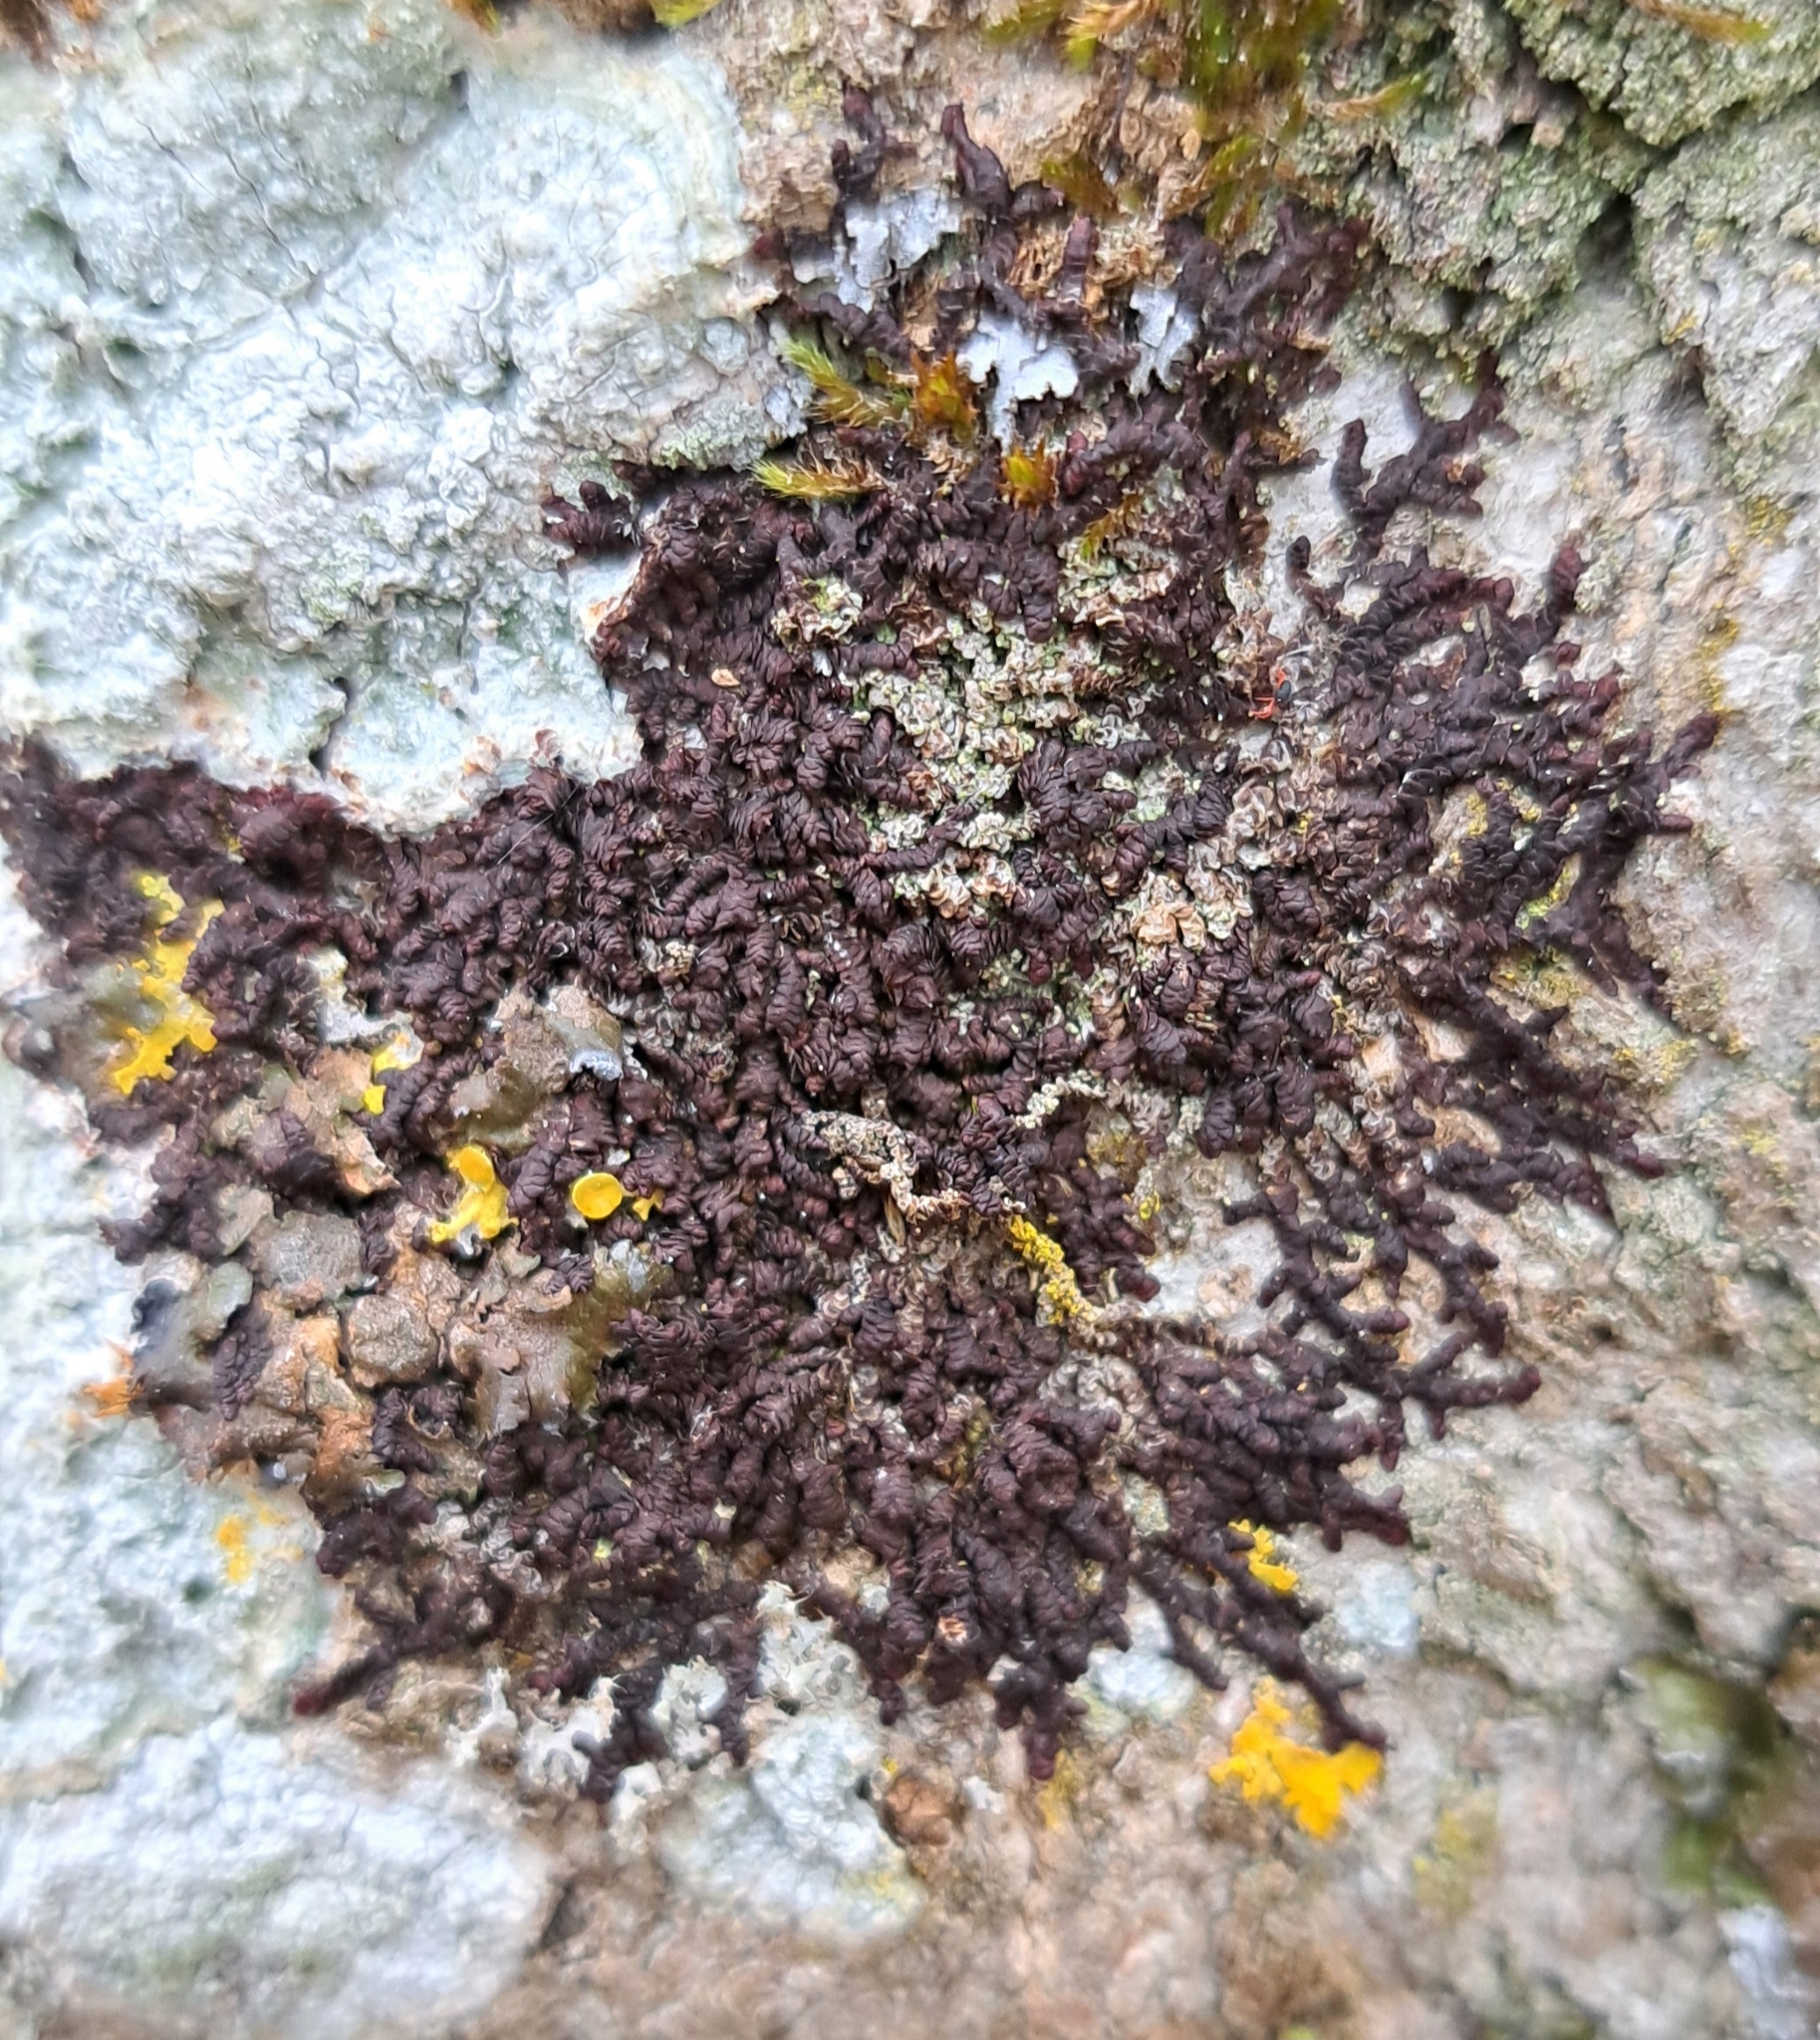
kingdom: Plantae
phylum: Marchantiophyta
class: Jungermanniopsida
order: Porellales
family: Frullaniaceae
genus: Frullania
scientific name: Frullania dilatata
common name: Dilated scalewort
